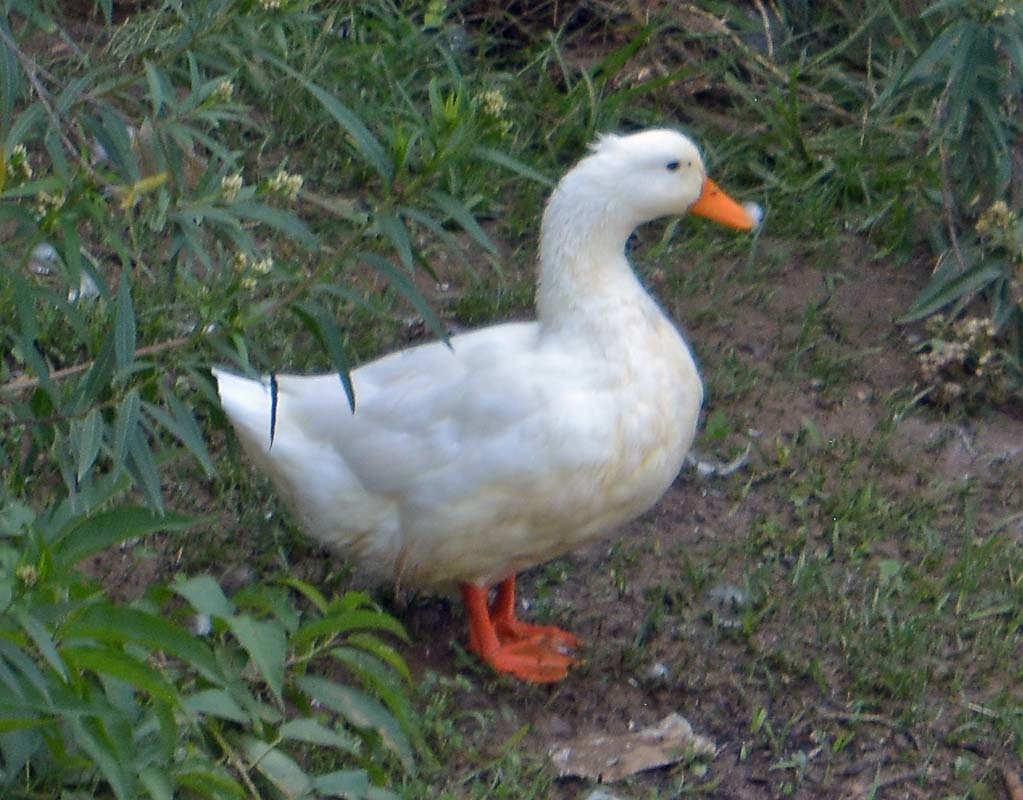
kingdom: Animalia
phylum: Chordata
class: Aves
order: Anseriformes
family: Anatidae
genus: Anas
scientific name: Anas platyrhynchos
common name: Mallard
